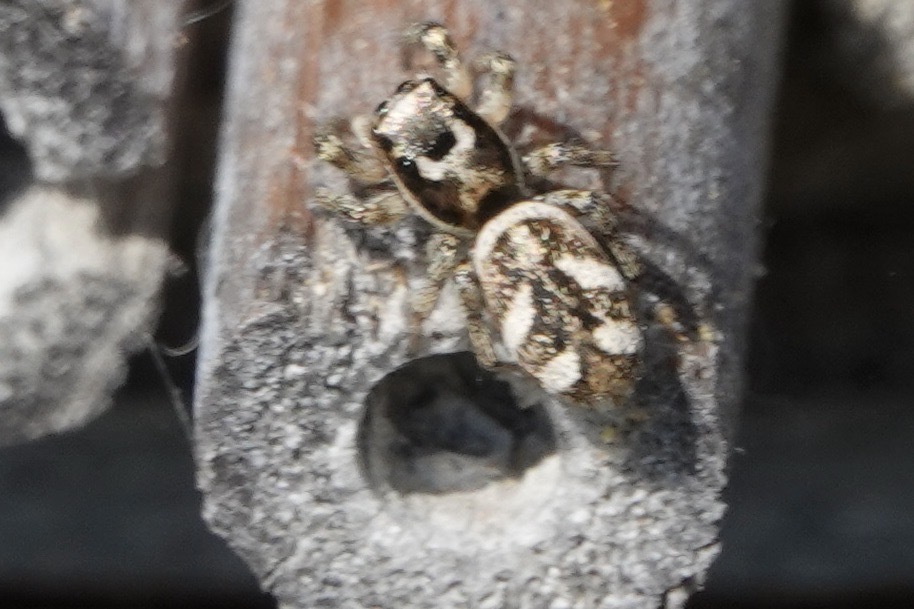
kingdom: Animalia
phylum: Arthropoda
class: Arachnida
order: Araneae
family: Salticidae
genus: Salticus
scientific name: Salticus scenicus
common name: Zebra jumper
